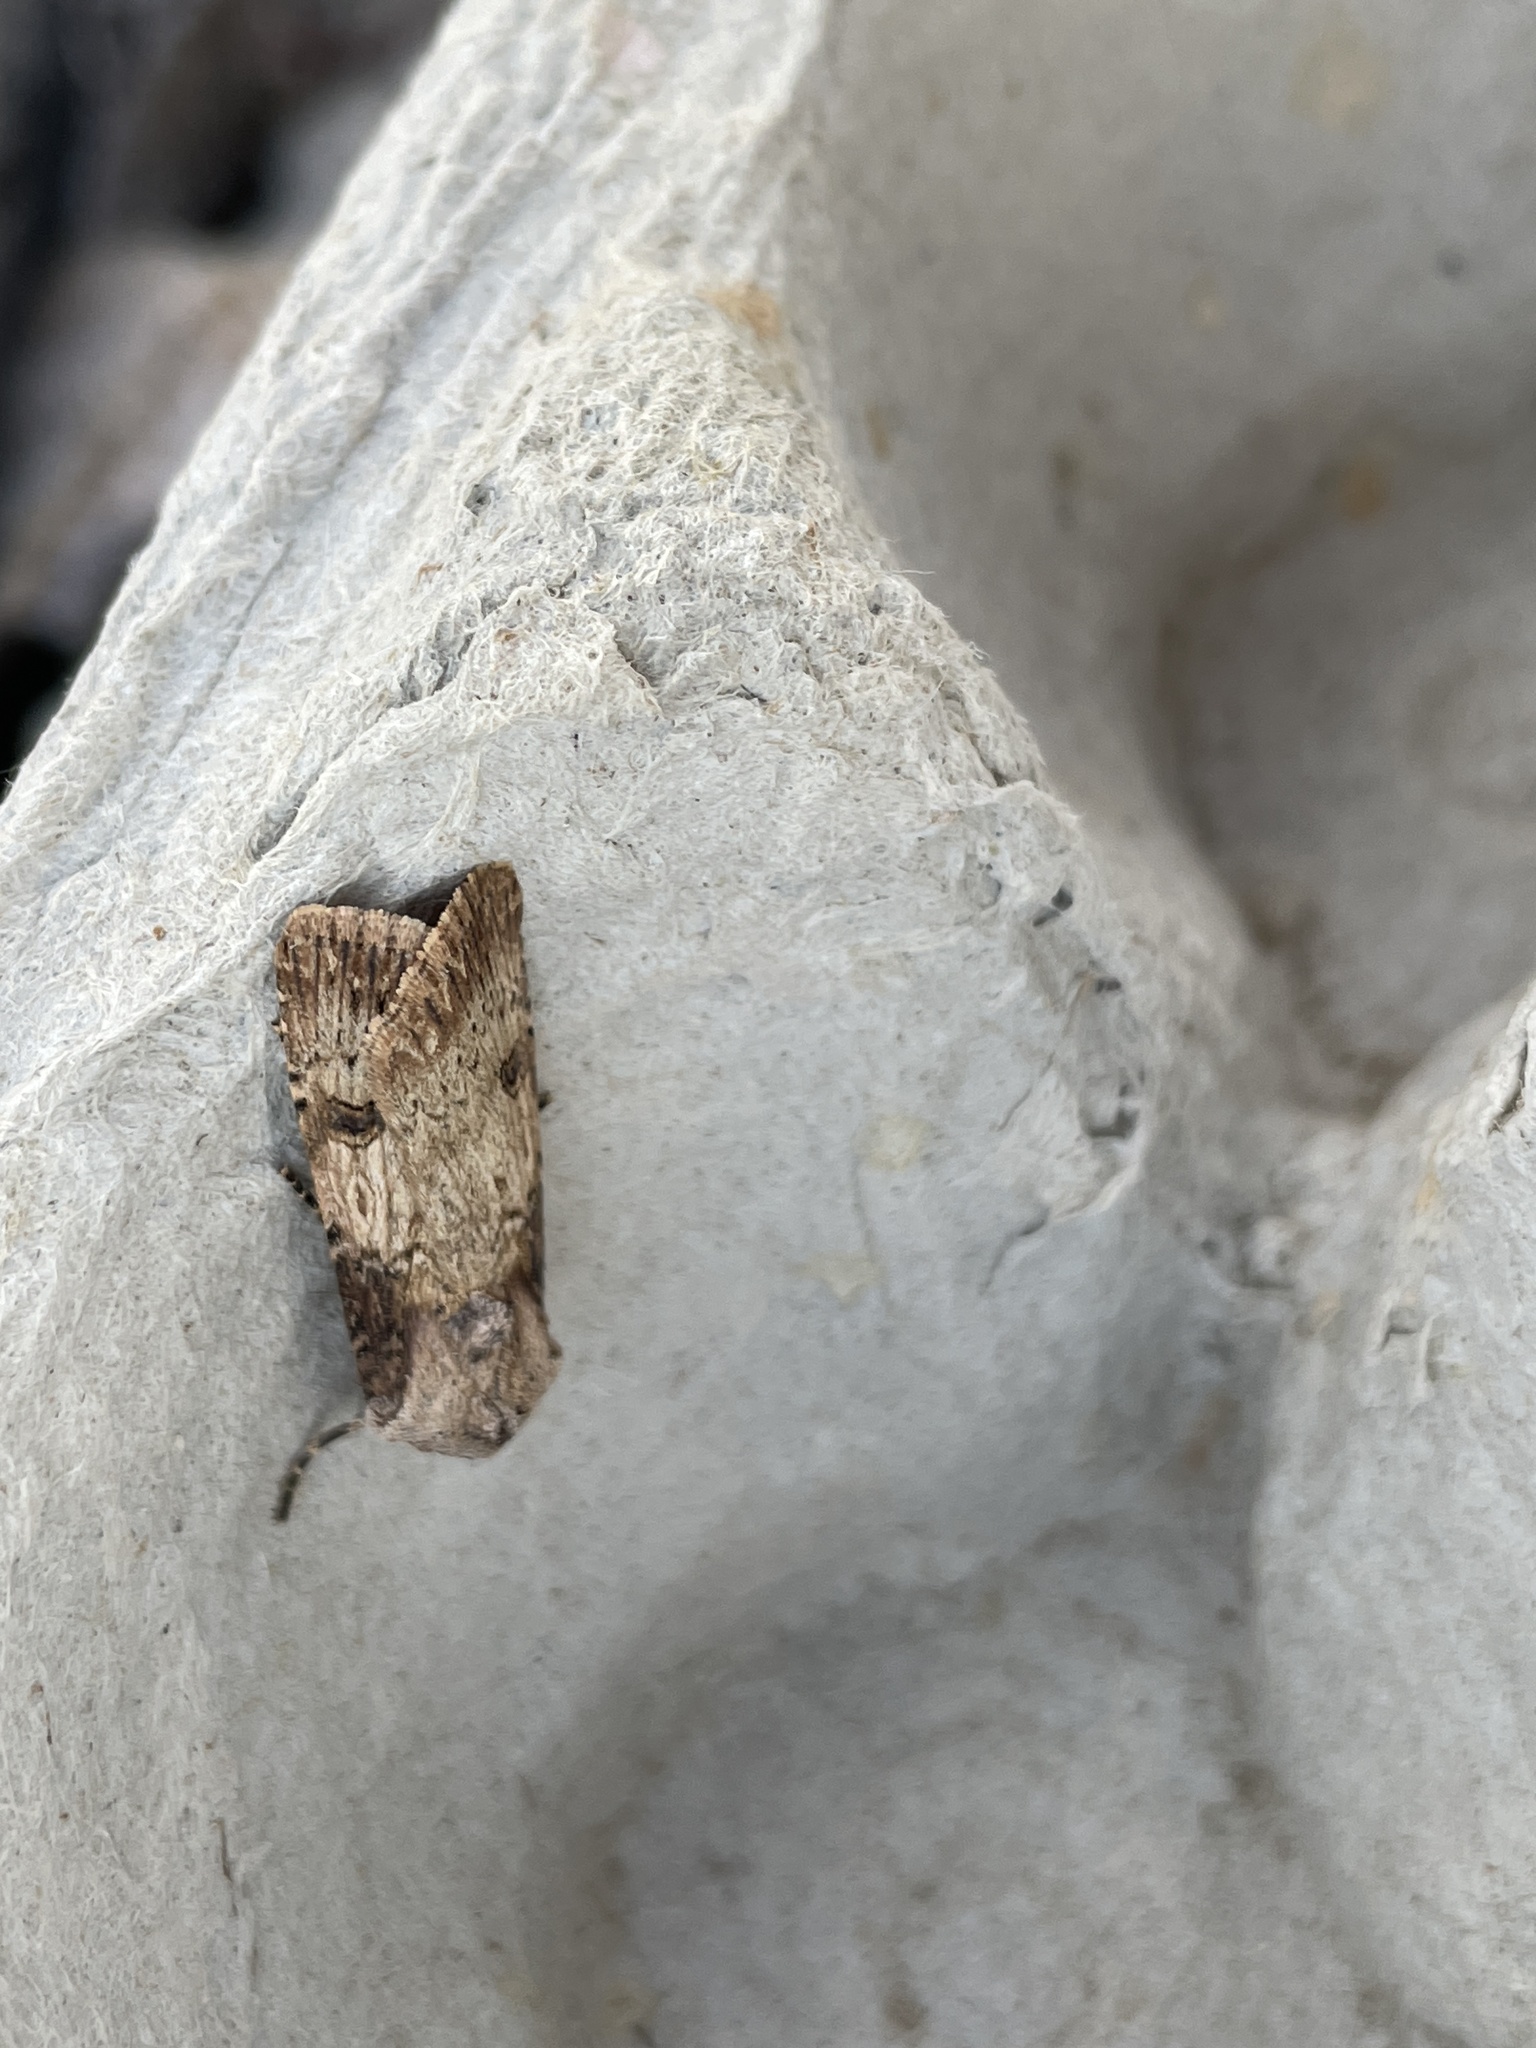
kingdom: Animalia
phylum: Arthropoda
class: Insecta
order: Lepidoptera
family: Noctuidae
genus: Agrotis
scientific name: Agrotis puta
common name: Shuttle-shaped dart
